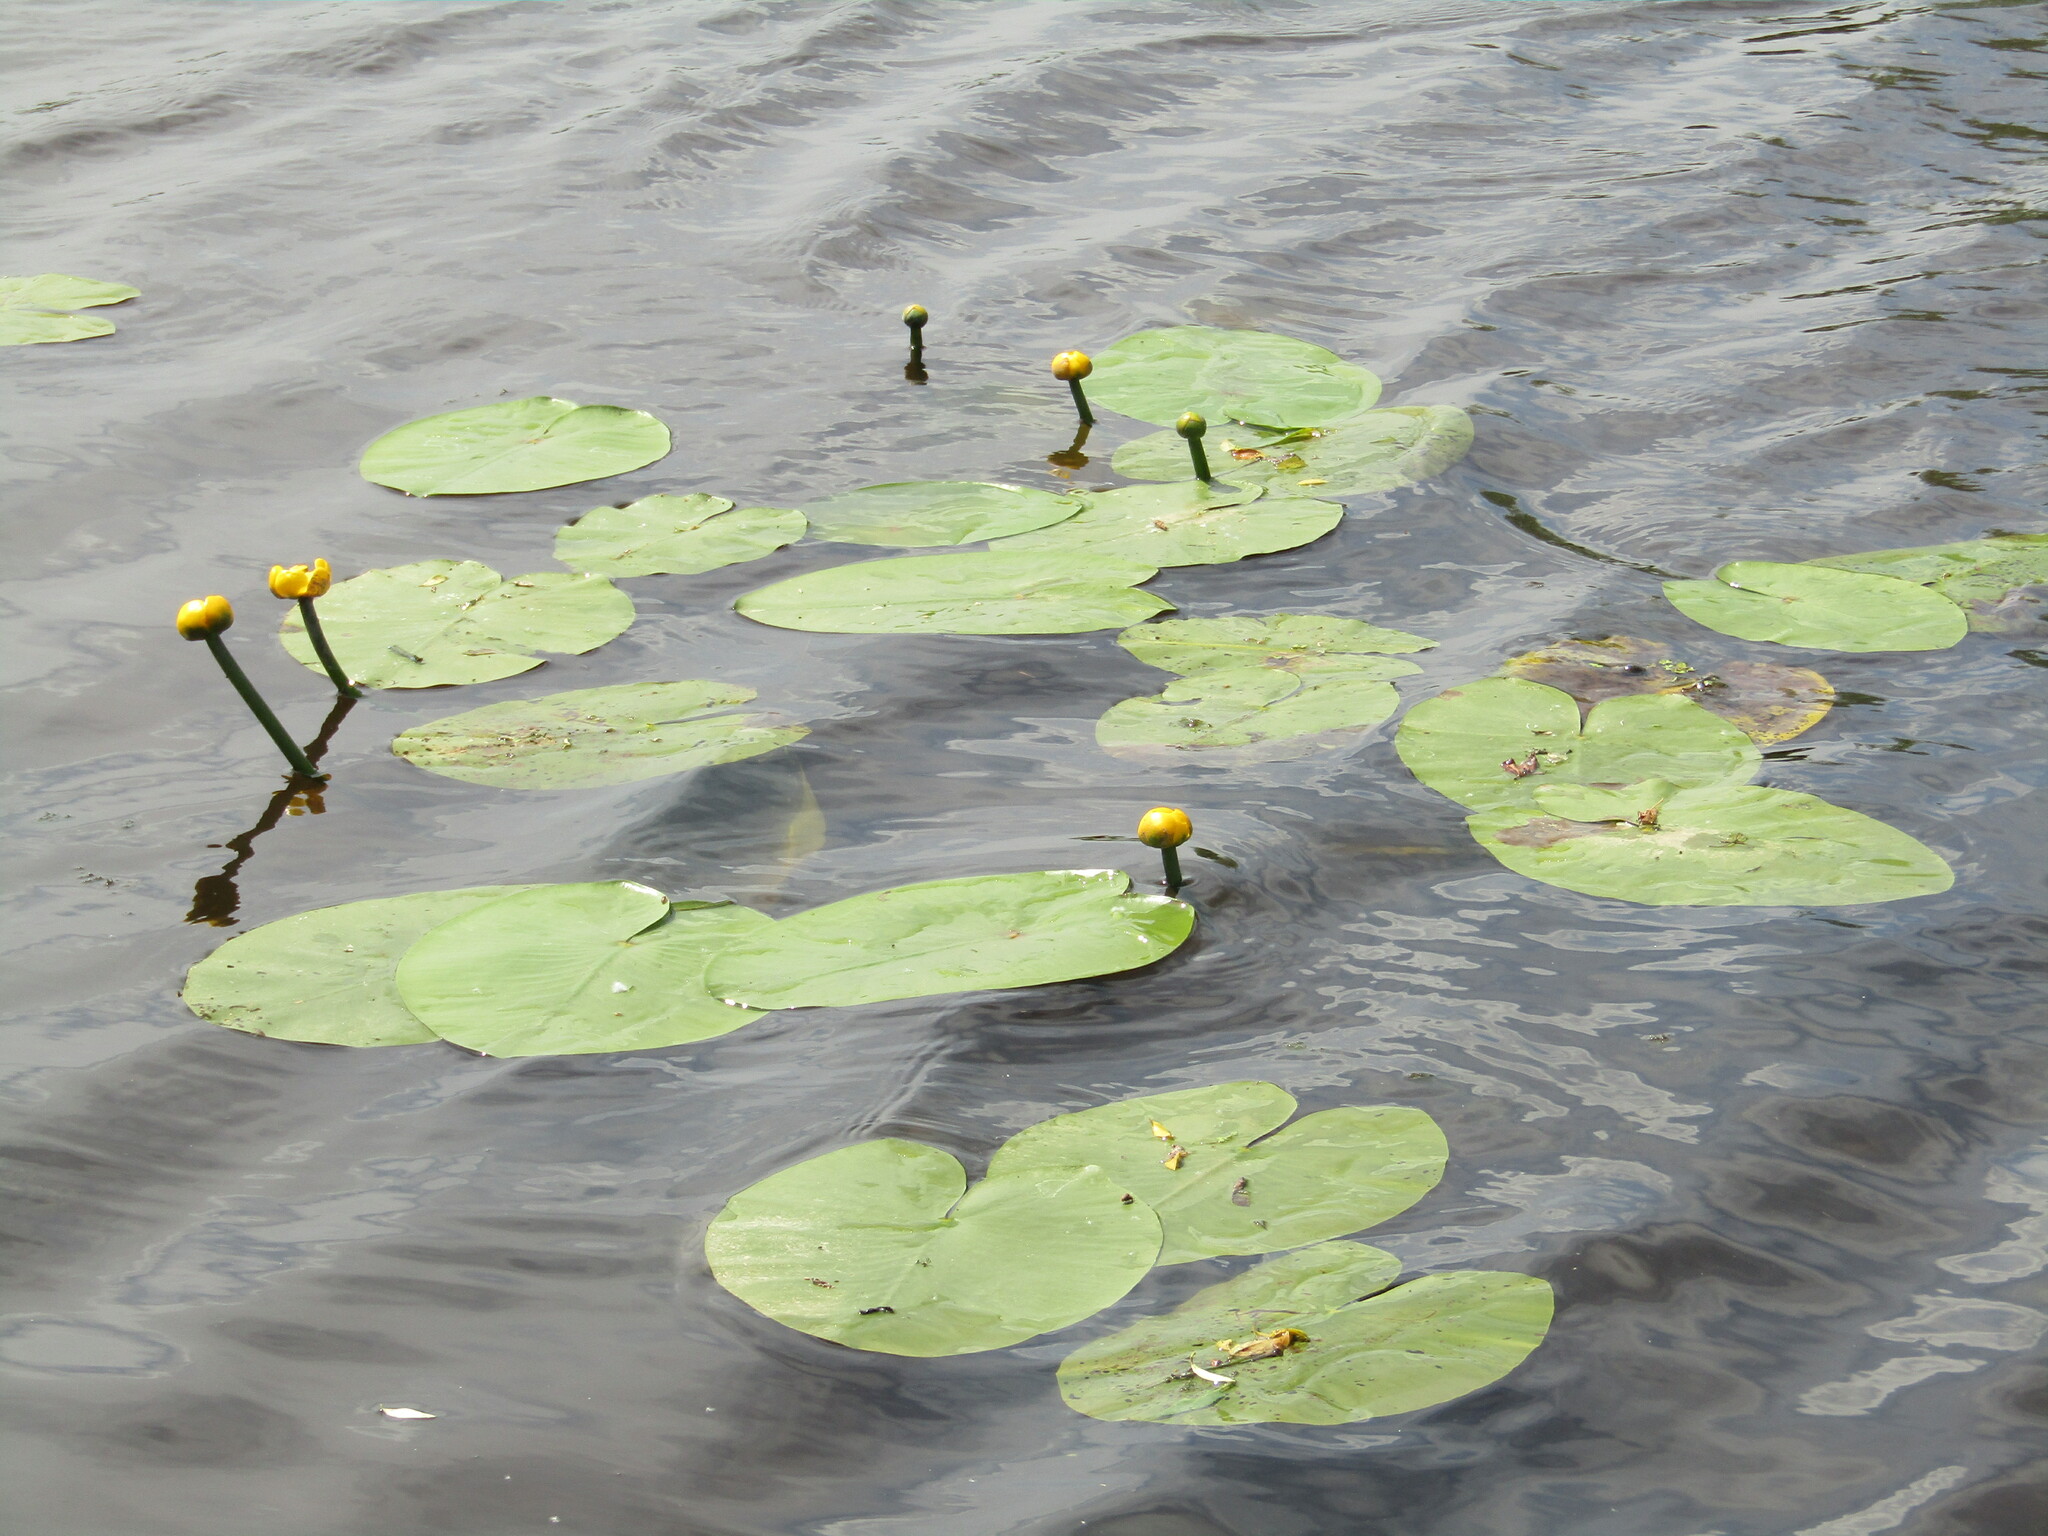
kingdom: Plantae
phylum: Tracheophyta
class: Magnoliopsida
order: Nymphaeales
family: Nymphaeaceae
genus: Nuphar
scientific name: Nuphar lutea
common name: Yellow water-lily
